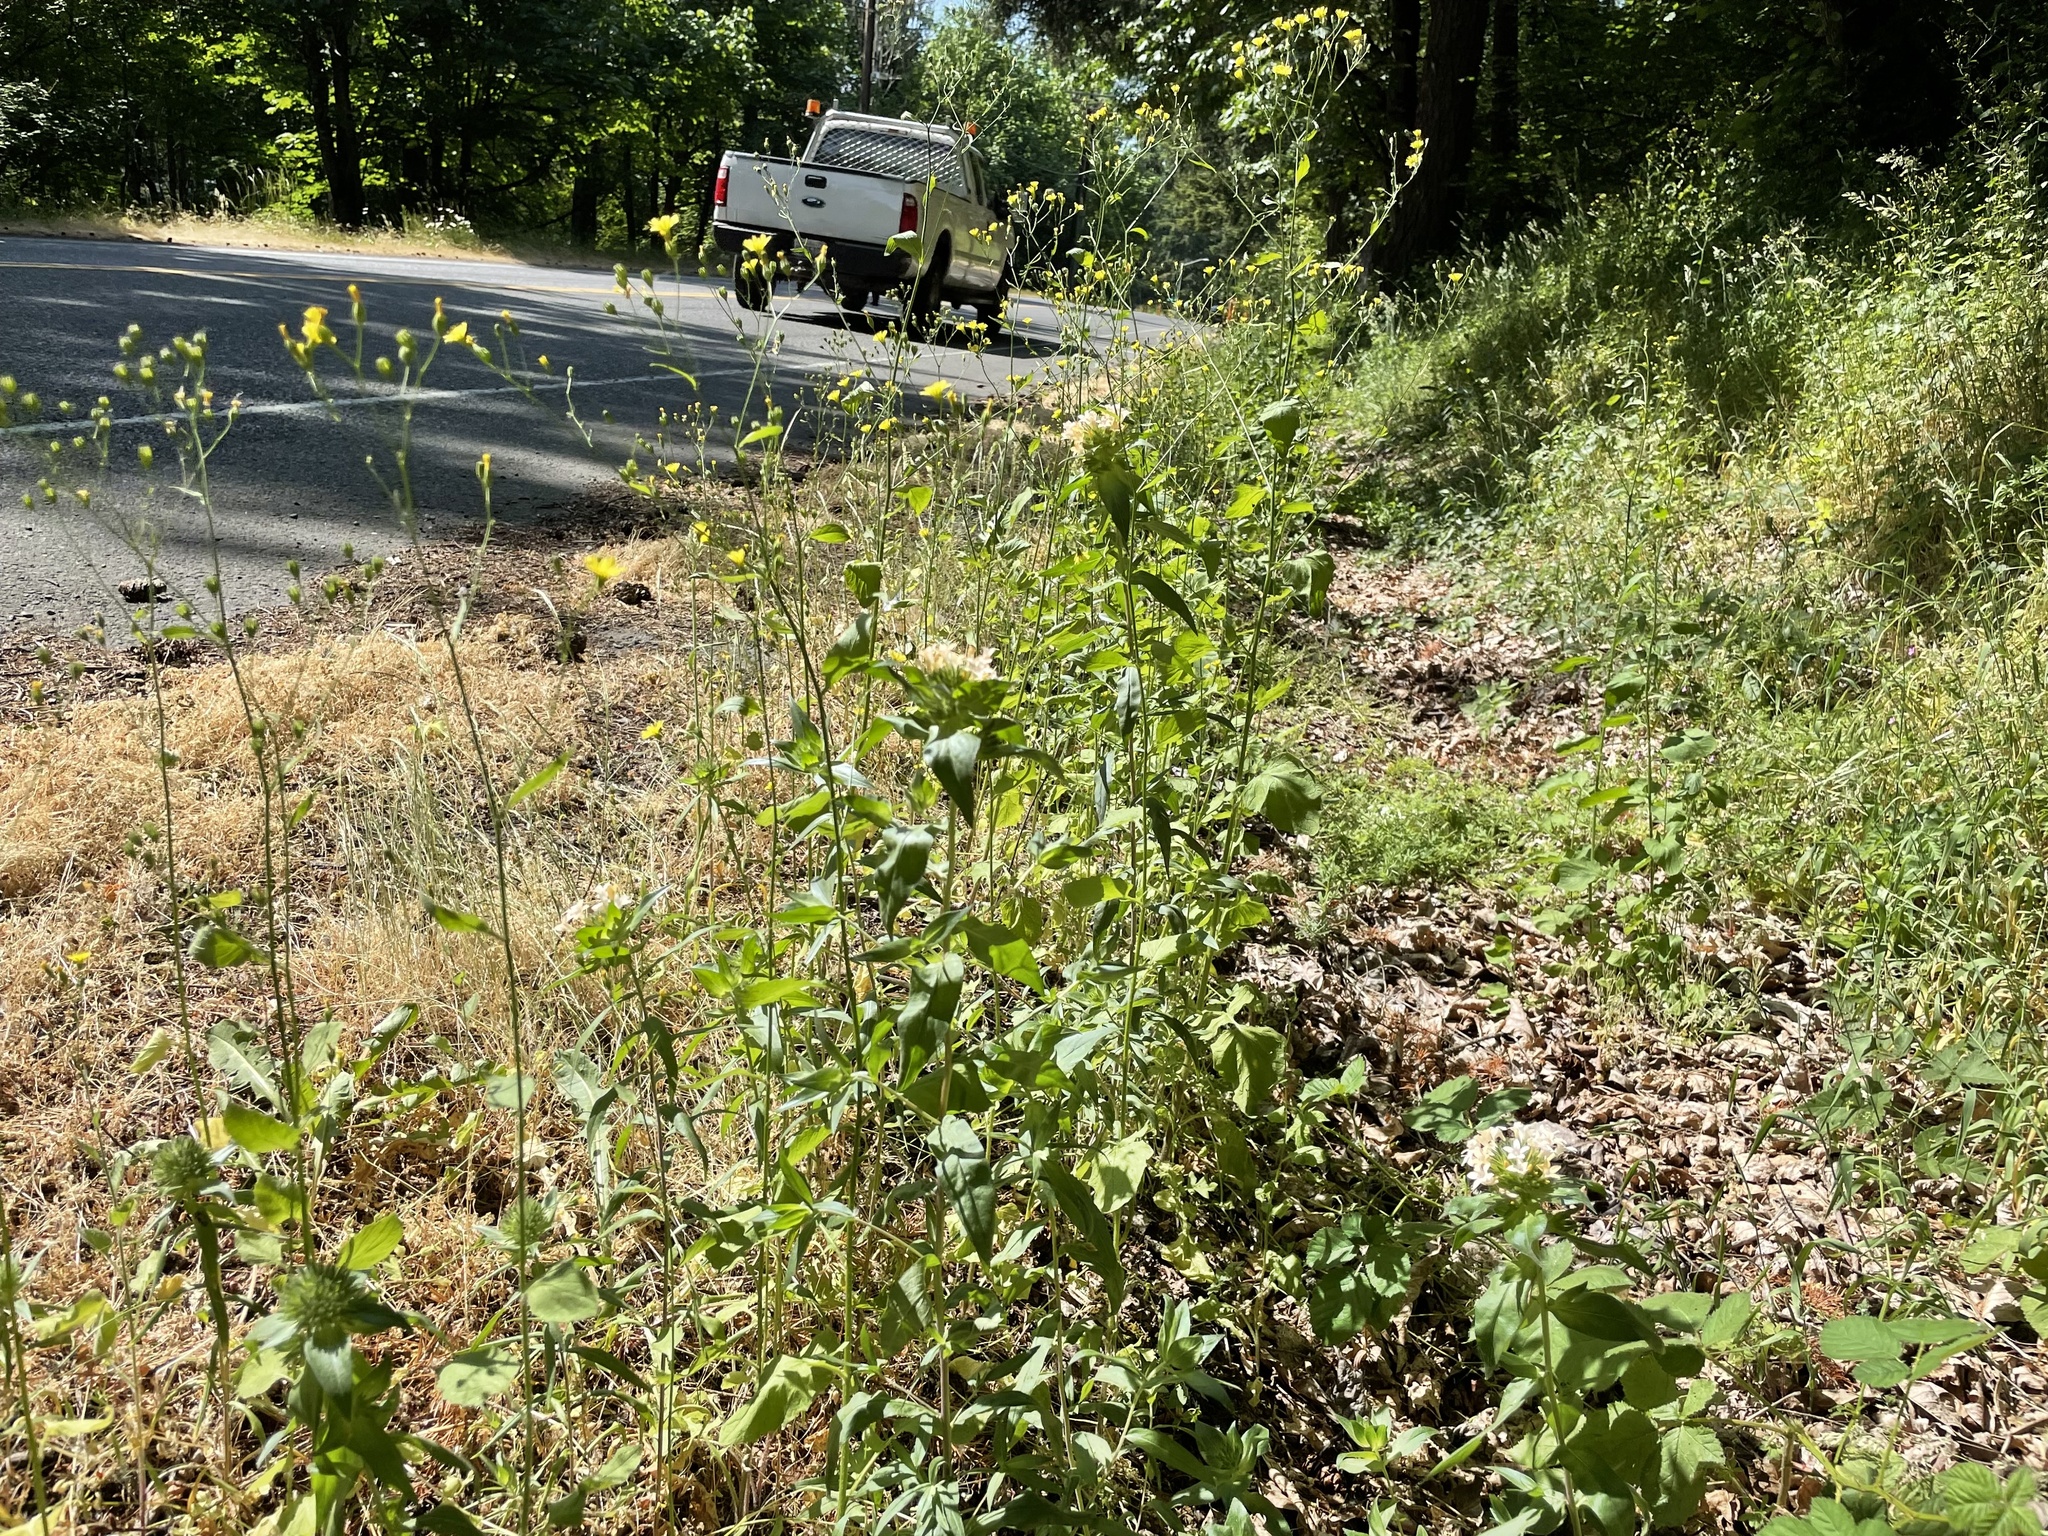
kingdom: Plantae
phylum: Tracheophyta
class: Magnoliopsida
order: Ericales
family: Polemoniaceae
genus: Collomia
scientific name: Collomia grandiflora
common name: California strawflower
